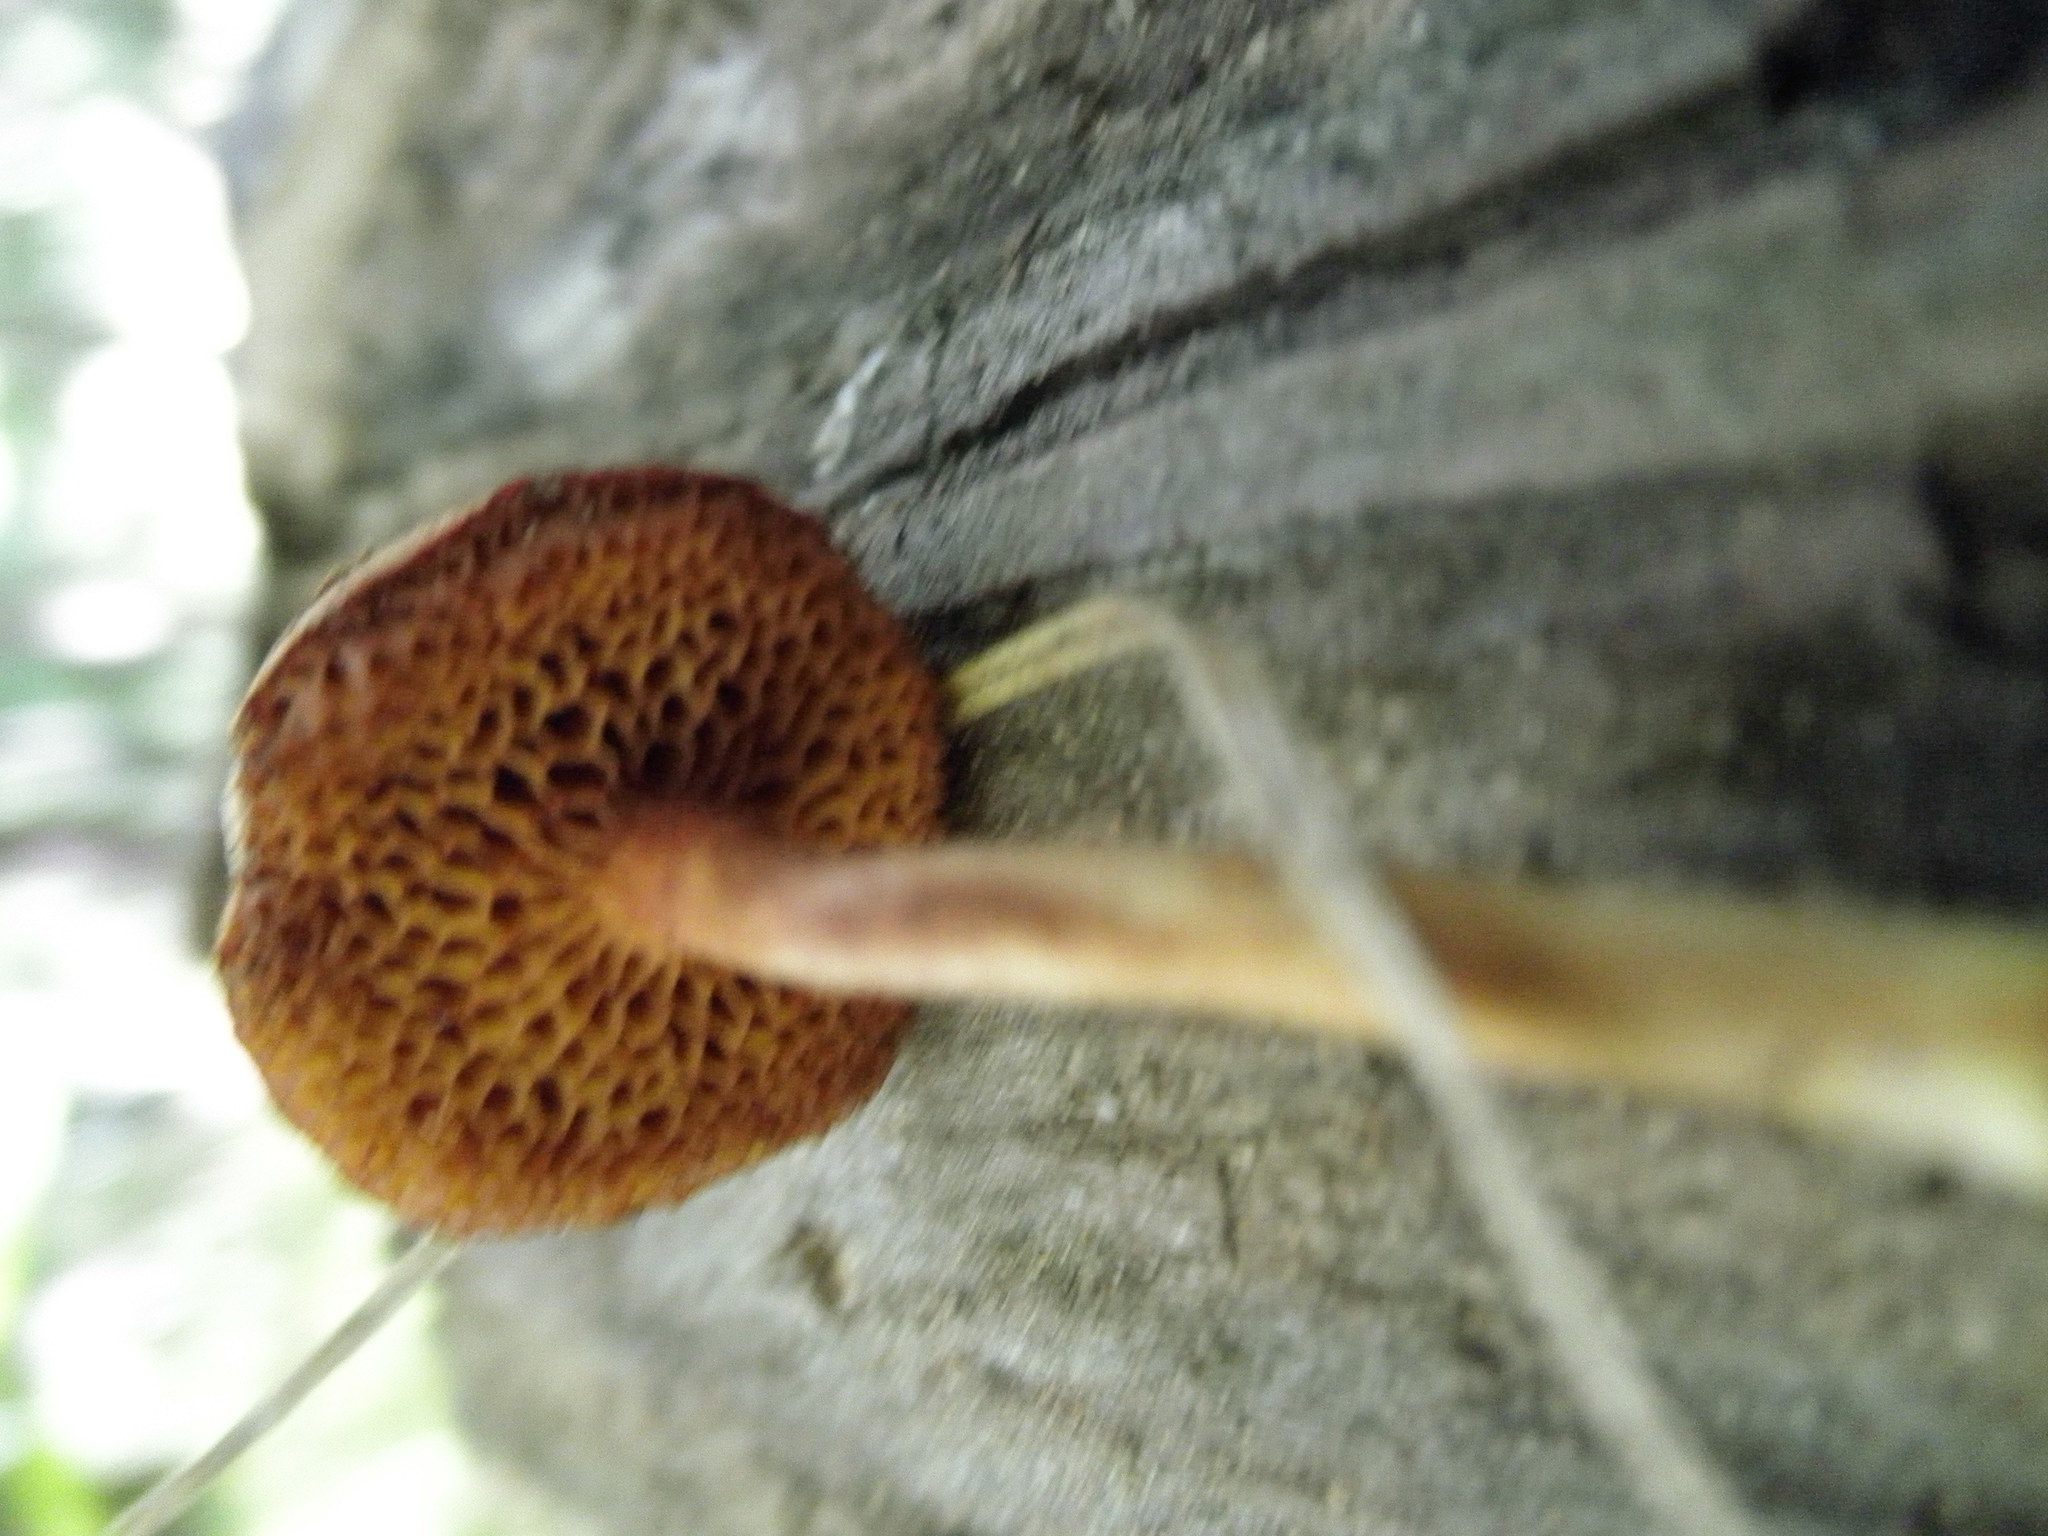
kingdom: Fungi
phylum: Basidiomycota
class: Agaricomycetes
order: Boletales
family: Boletaceae
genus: Chalciporus
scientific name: Chalciporus piperatus
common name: Peppery bolete
